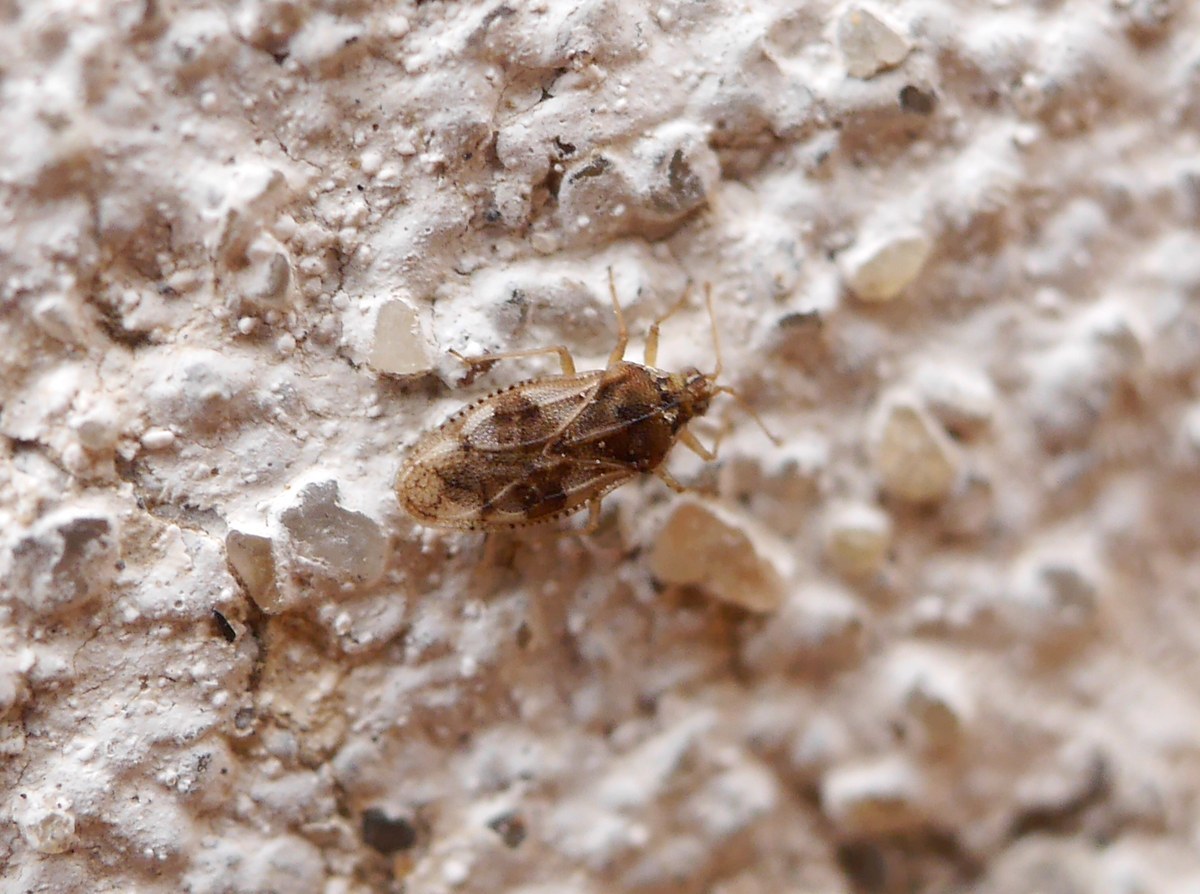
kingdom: Animalia
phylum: Arthropoda
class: Insecta
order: Hemiptera
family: Tingidae
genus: Monosteira
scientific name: Monosteira unicostata
